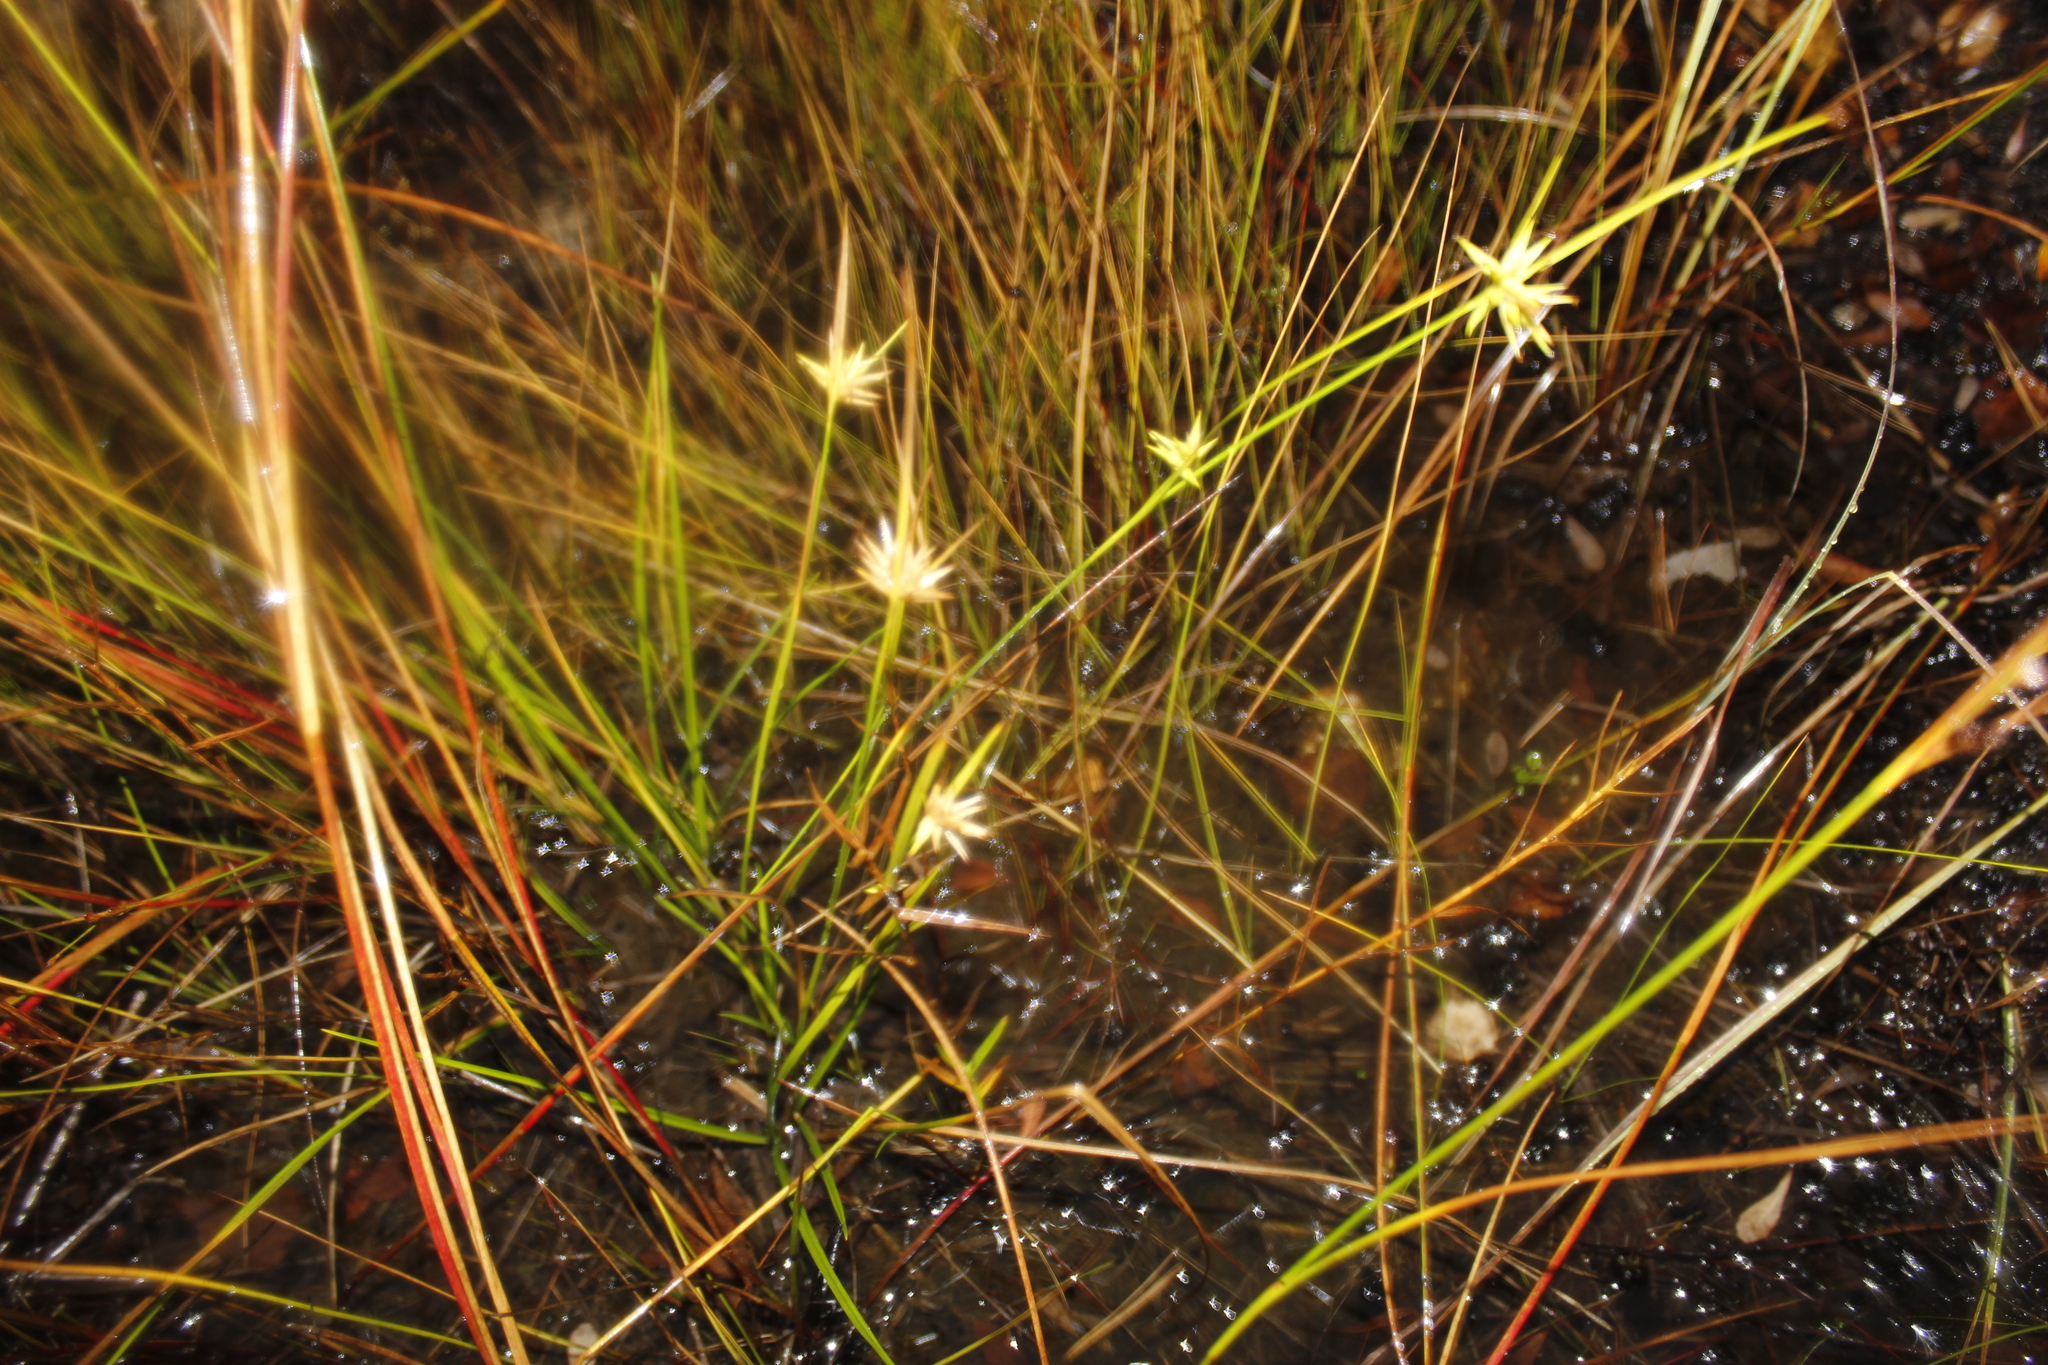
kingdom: Plantae
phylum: Tracheophyta
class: Liliopsida
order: Poales
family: Cyperaceae
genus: Carex
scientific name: Carex michauxiana
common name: Michaux's sedge
